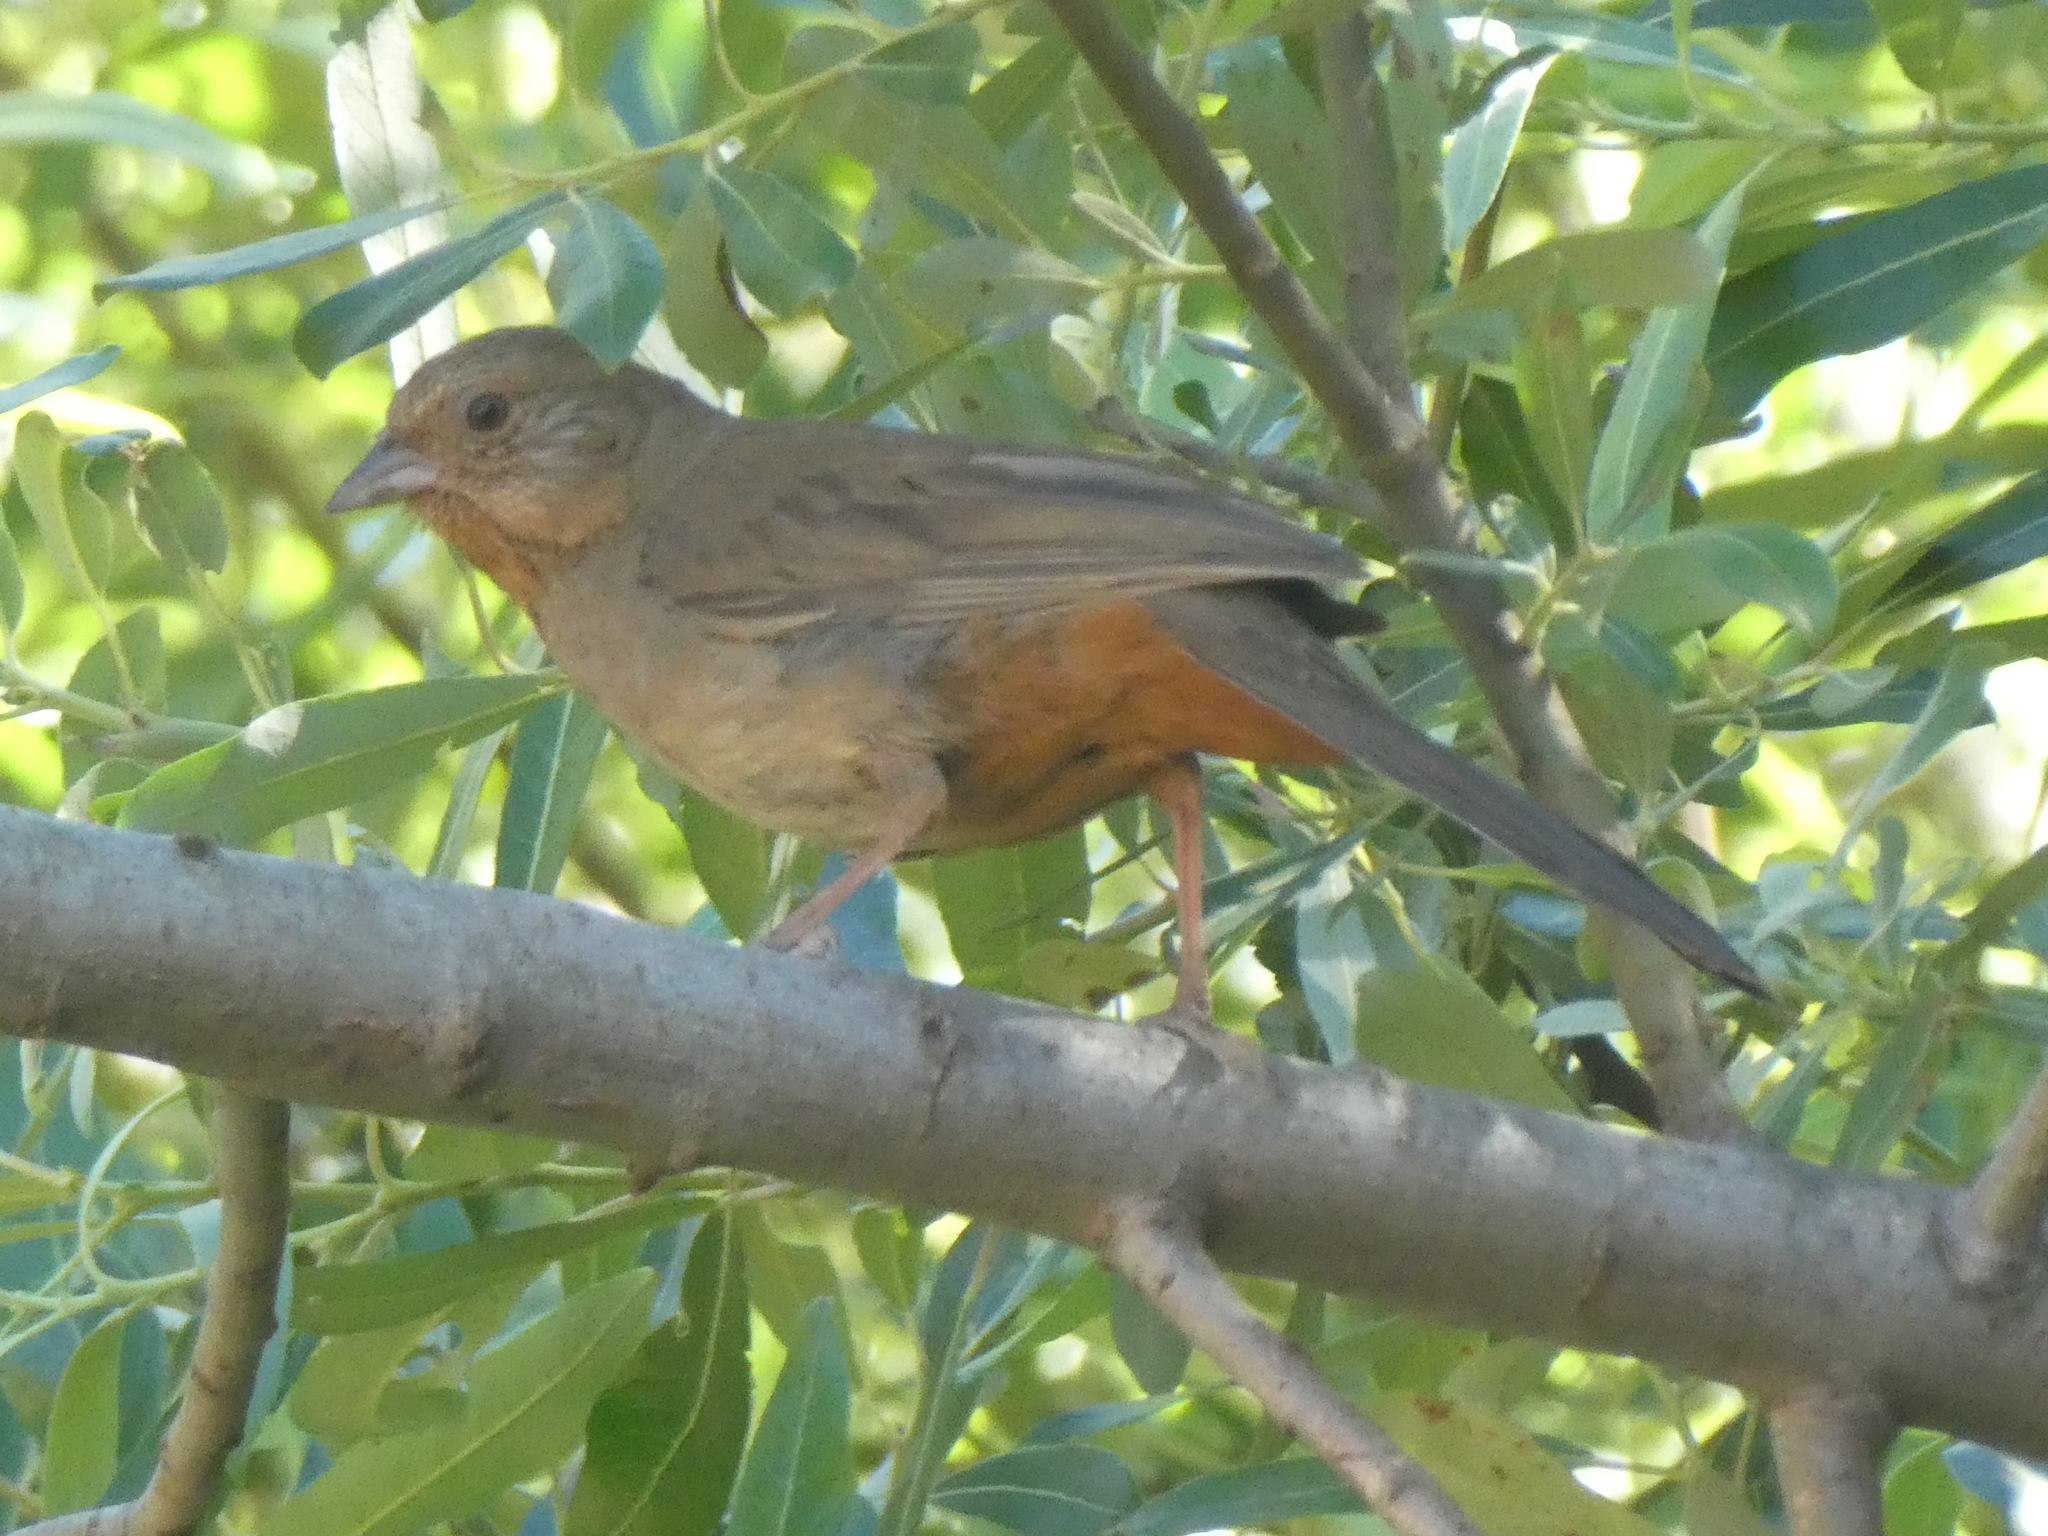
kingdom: Animalia
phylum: Chordata
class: Aves
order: Passeriformes
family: Passerellidae
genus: Melozone
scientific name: Melozone crissalis
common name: California towhee
